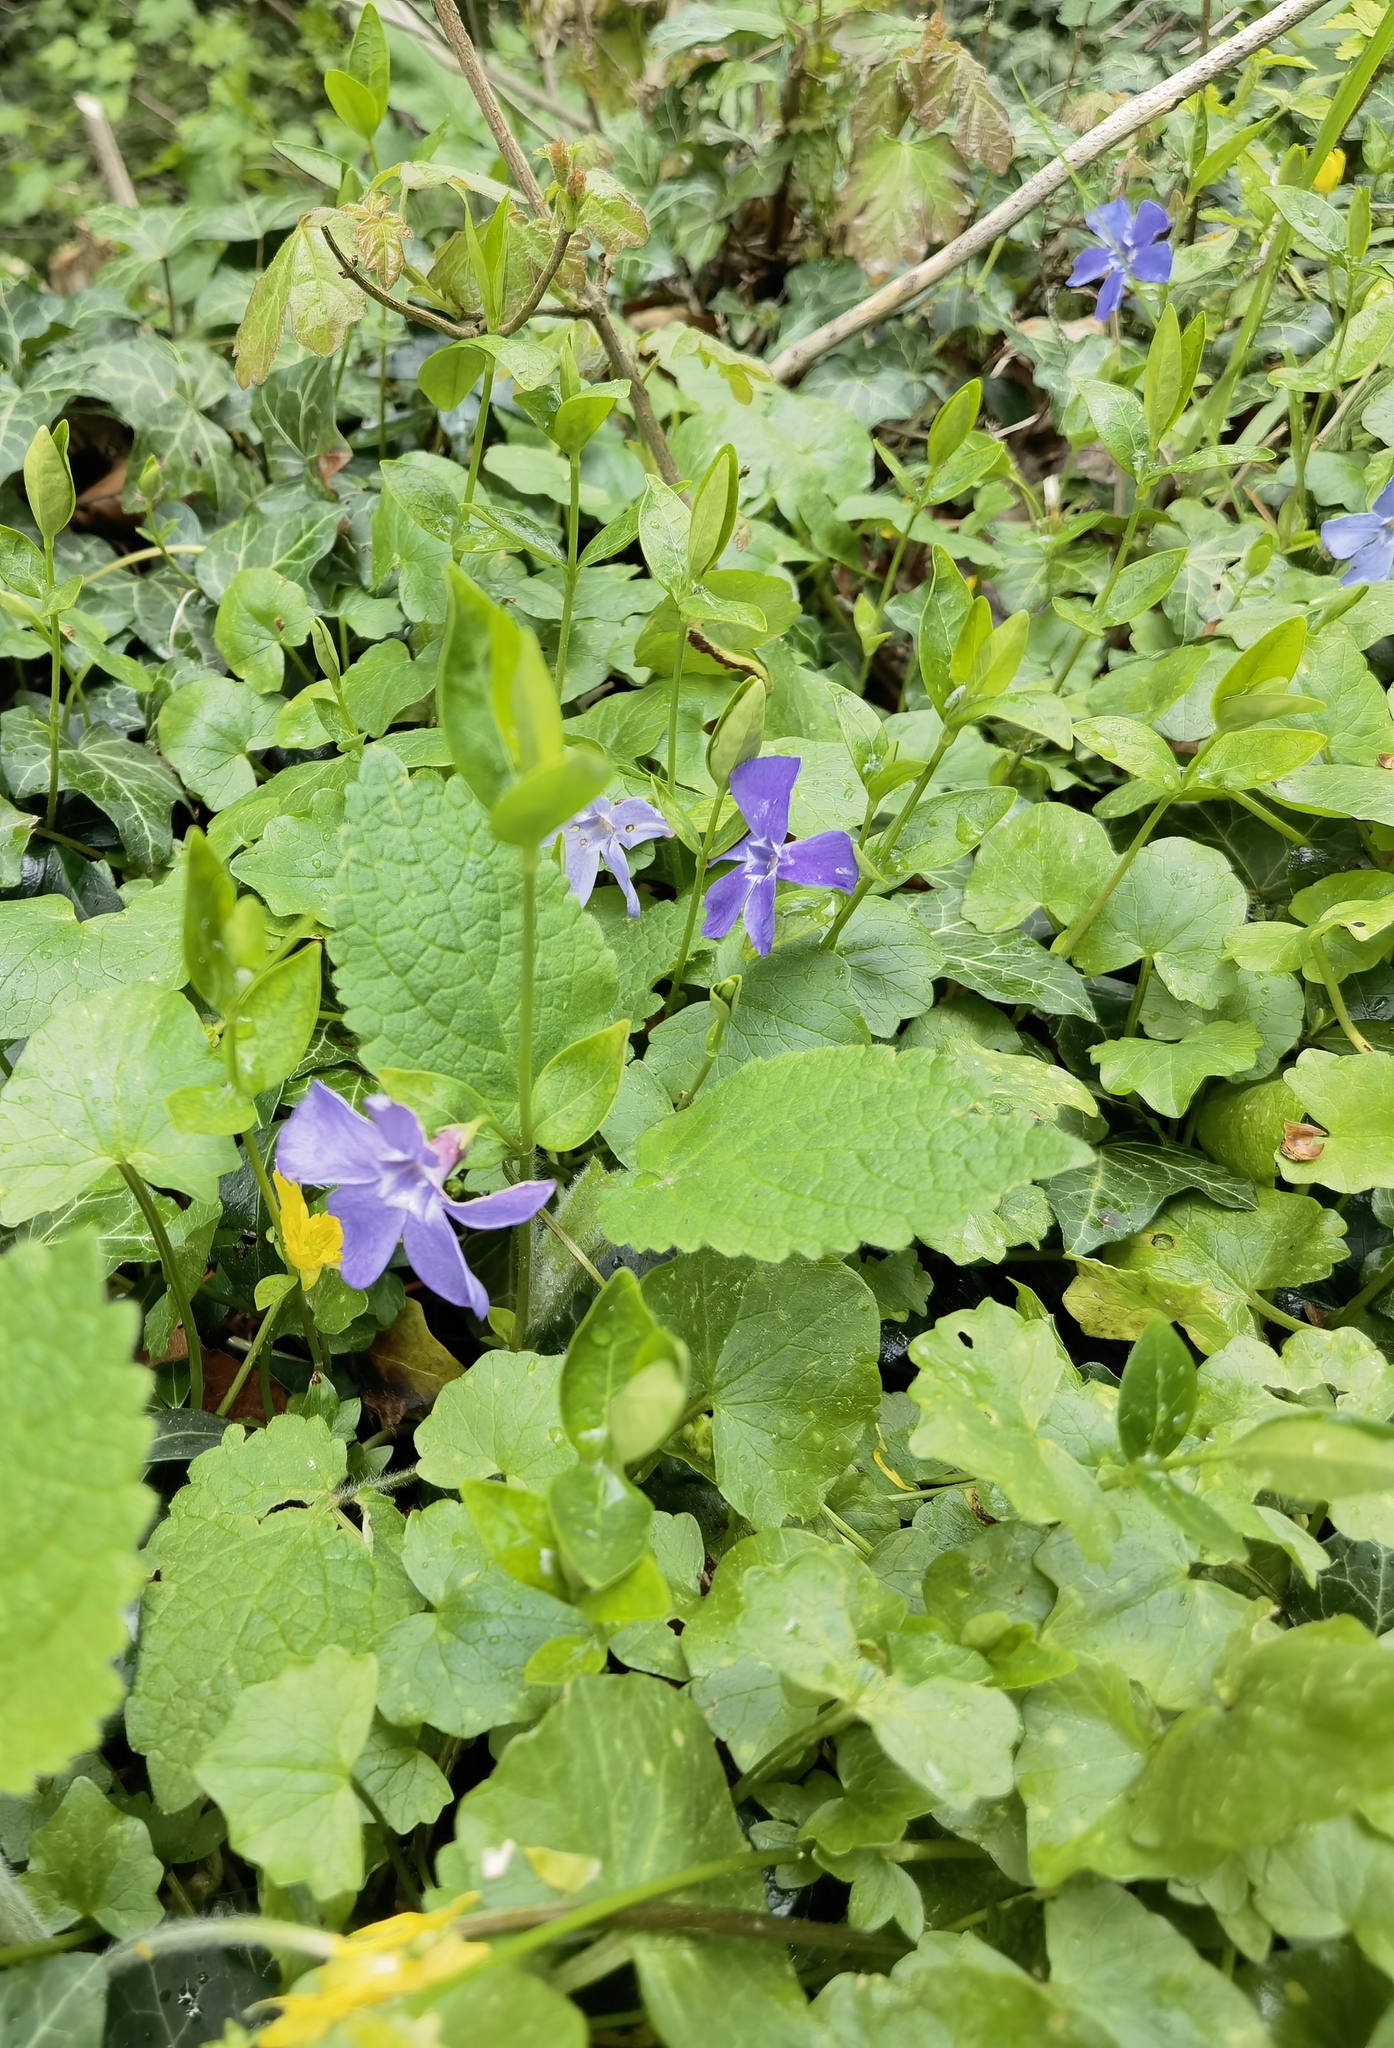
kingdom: Plantae
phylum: Tracheophyta
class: Magnoliopsida
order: Gentianales
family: Apocynaceae
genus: Vinca
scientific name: Vinca minor
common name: Lesser periwinkle
